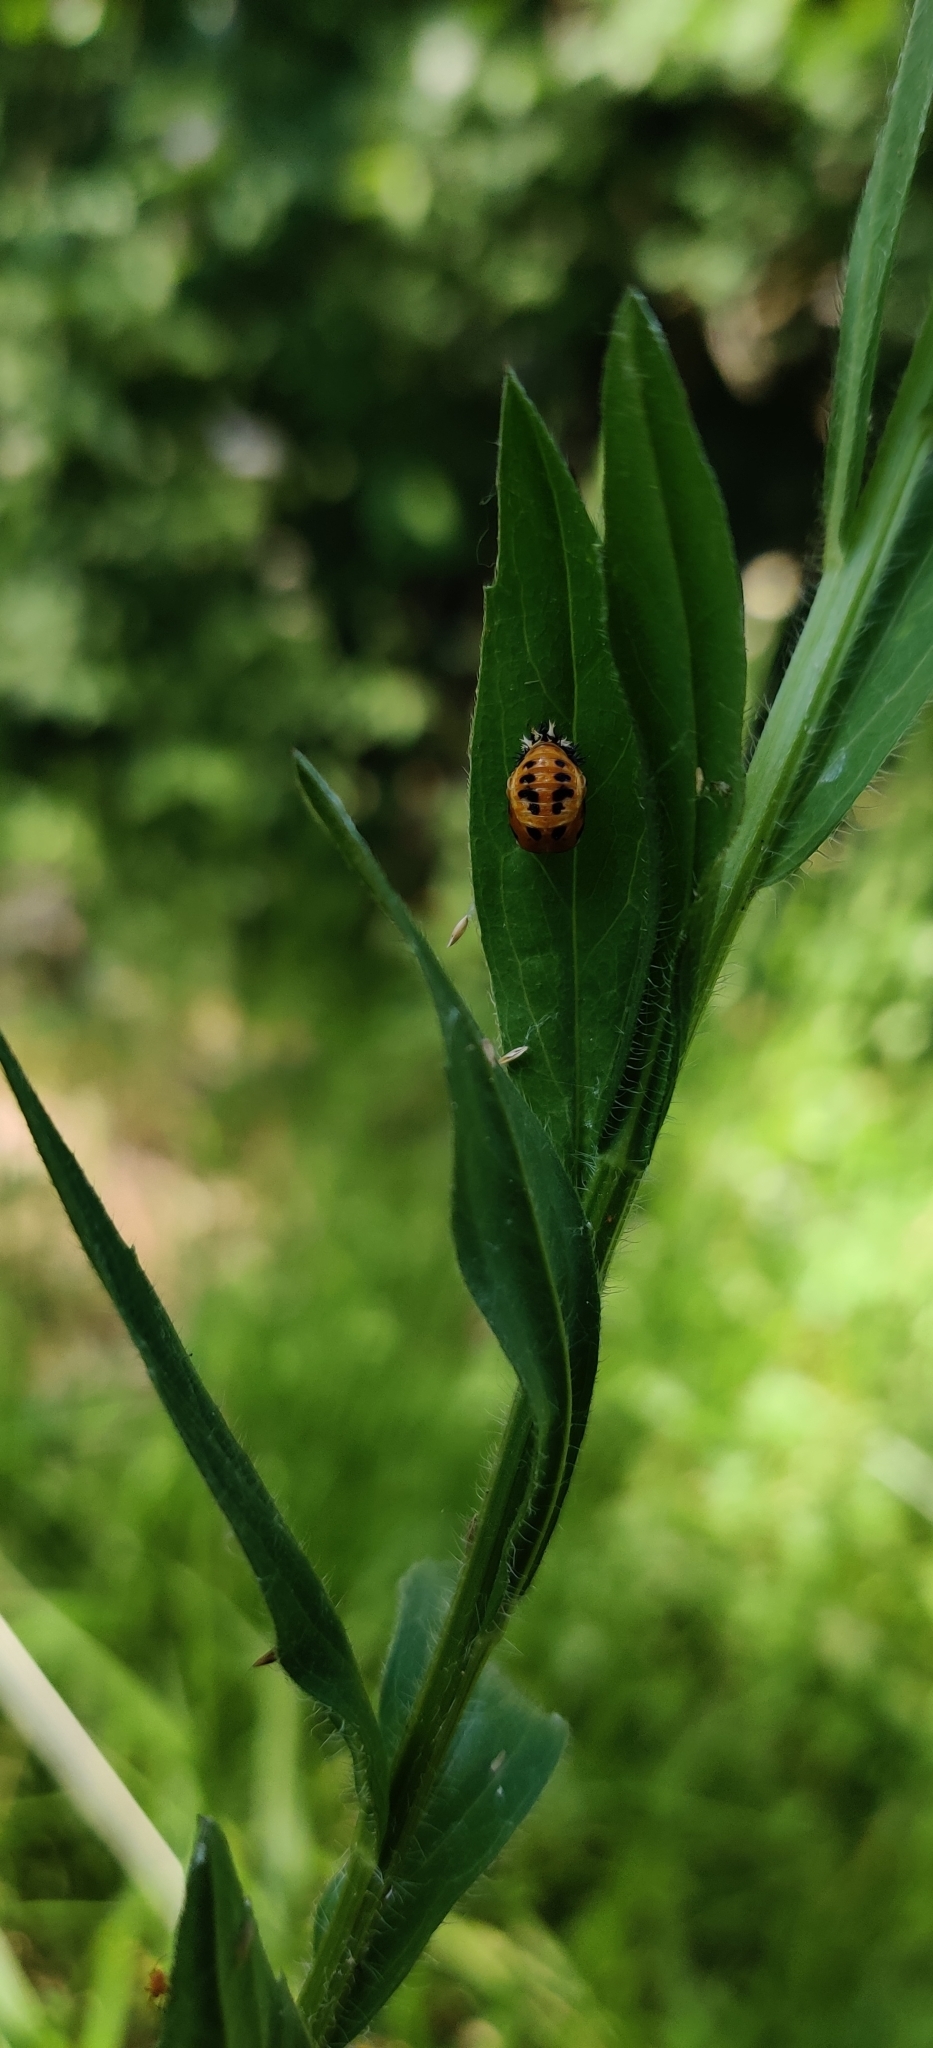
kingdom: Animalia
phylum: Arthropoda
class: Insecta
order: Coleoptera
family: Coccinellidae
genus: Harmonia
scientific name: Harmonia axyridis
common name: Harlequin ladybird
